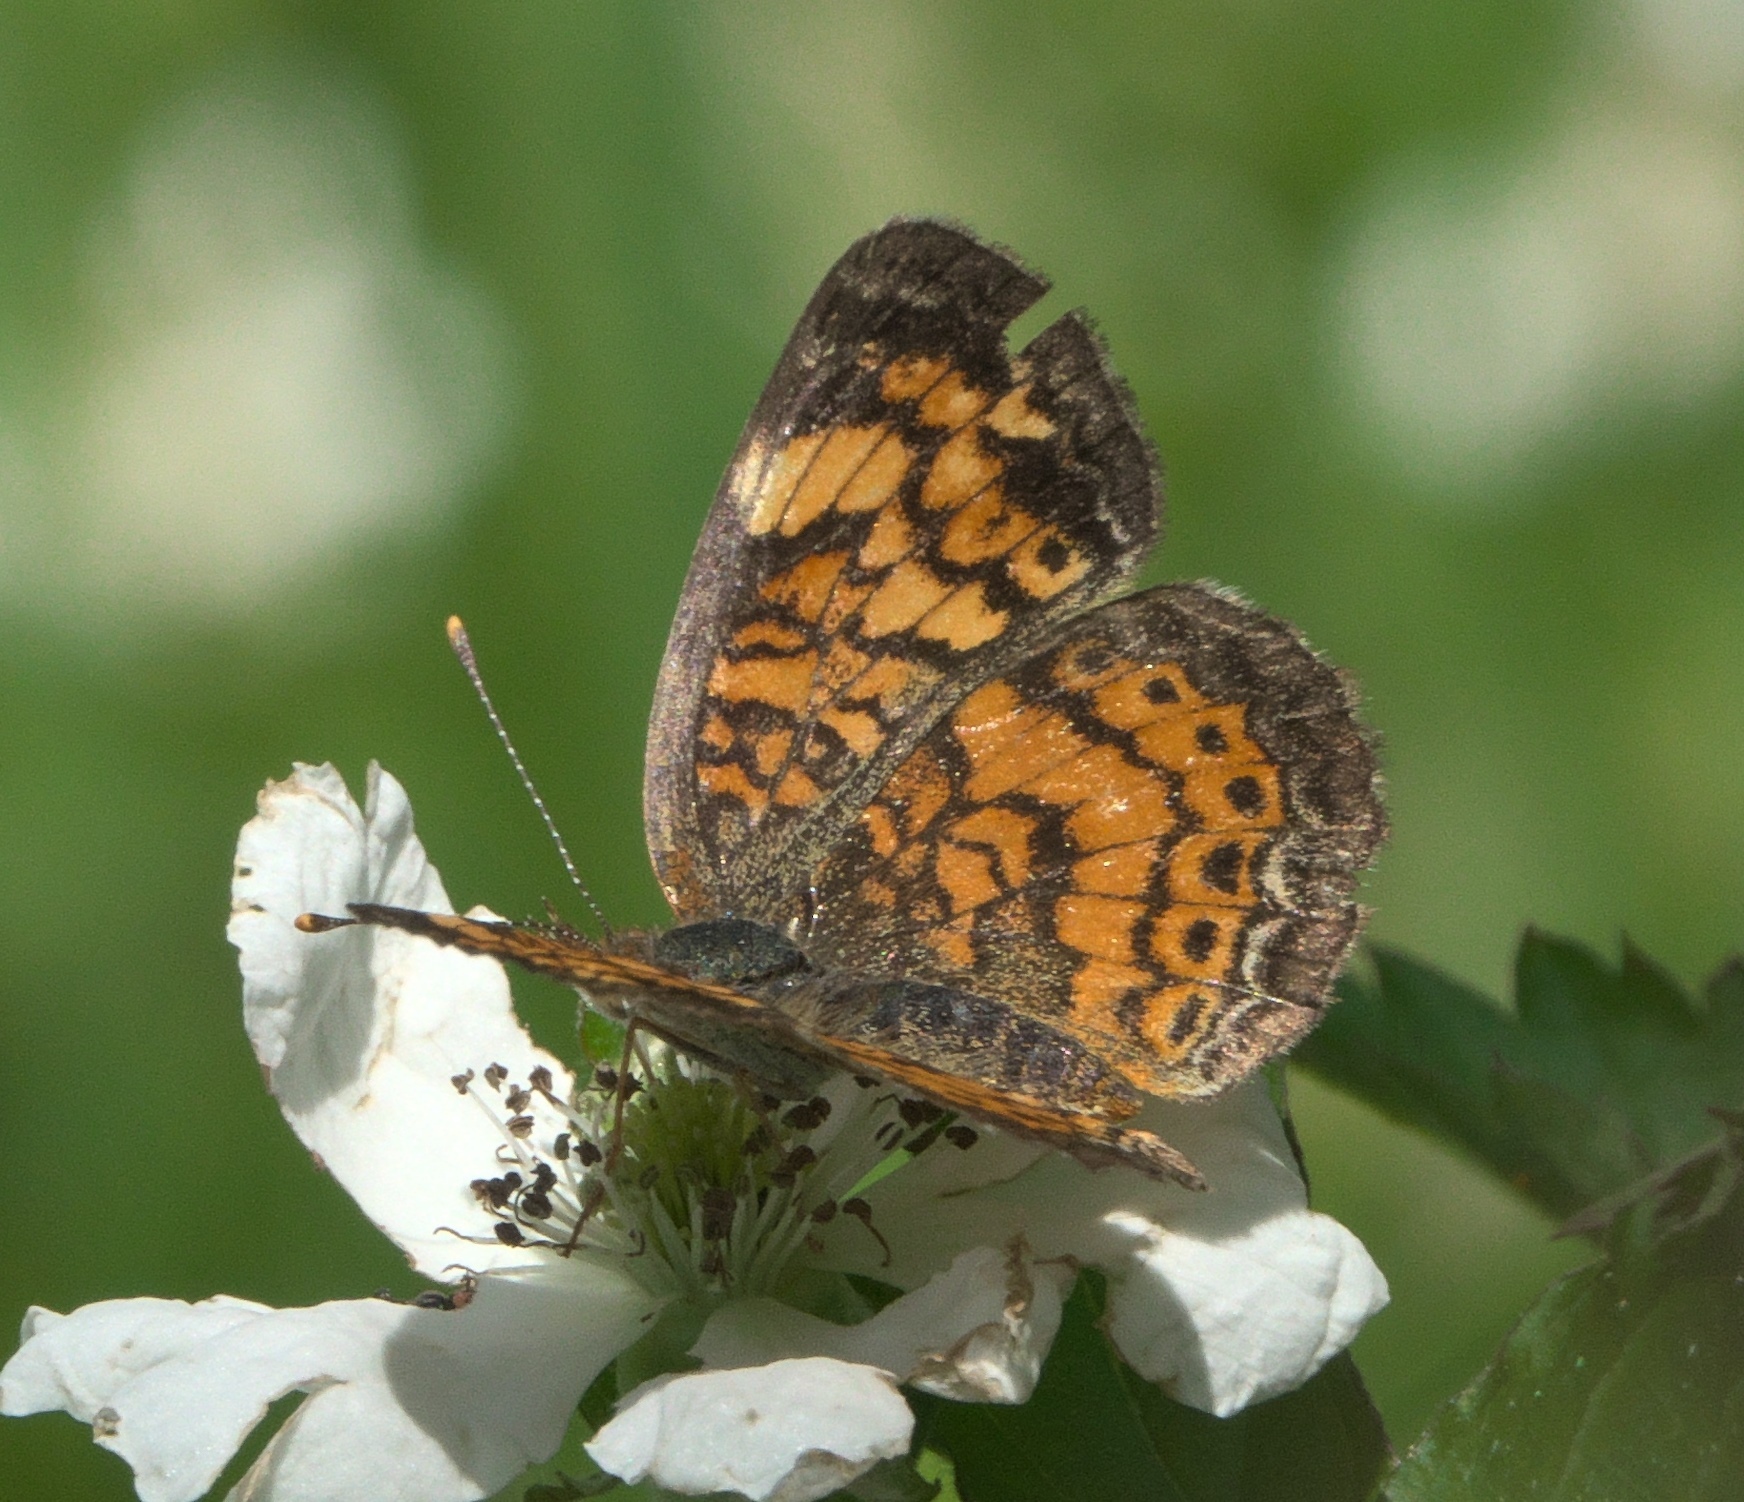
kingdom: Animalia
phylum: Arthropoda
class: Insecta
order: Lepidoptera
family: Nymphalidae
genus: Phyciodes
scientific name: Phyciodes tharos
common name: Pearl crescent
